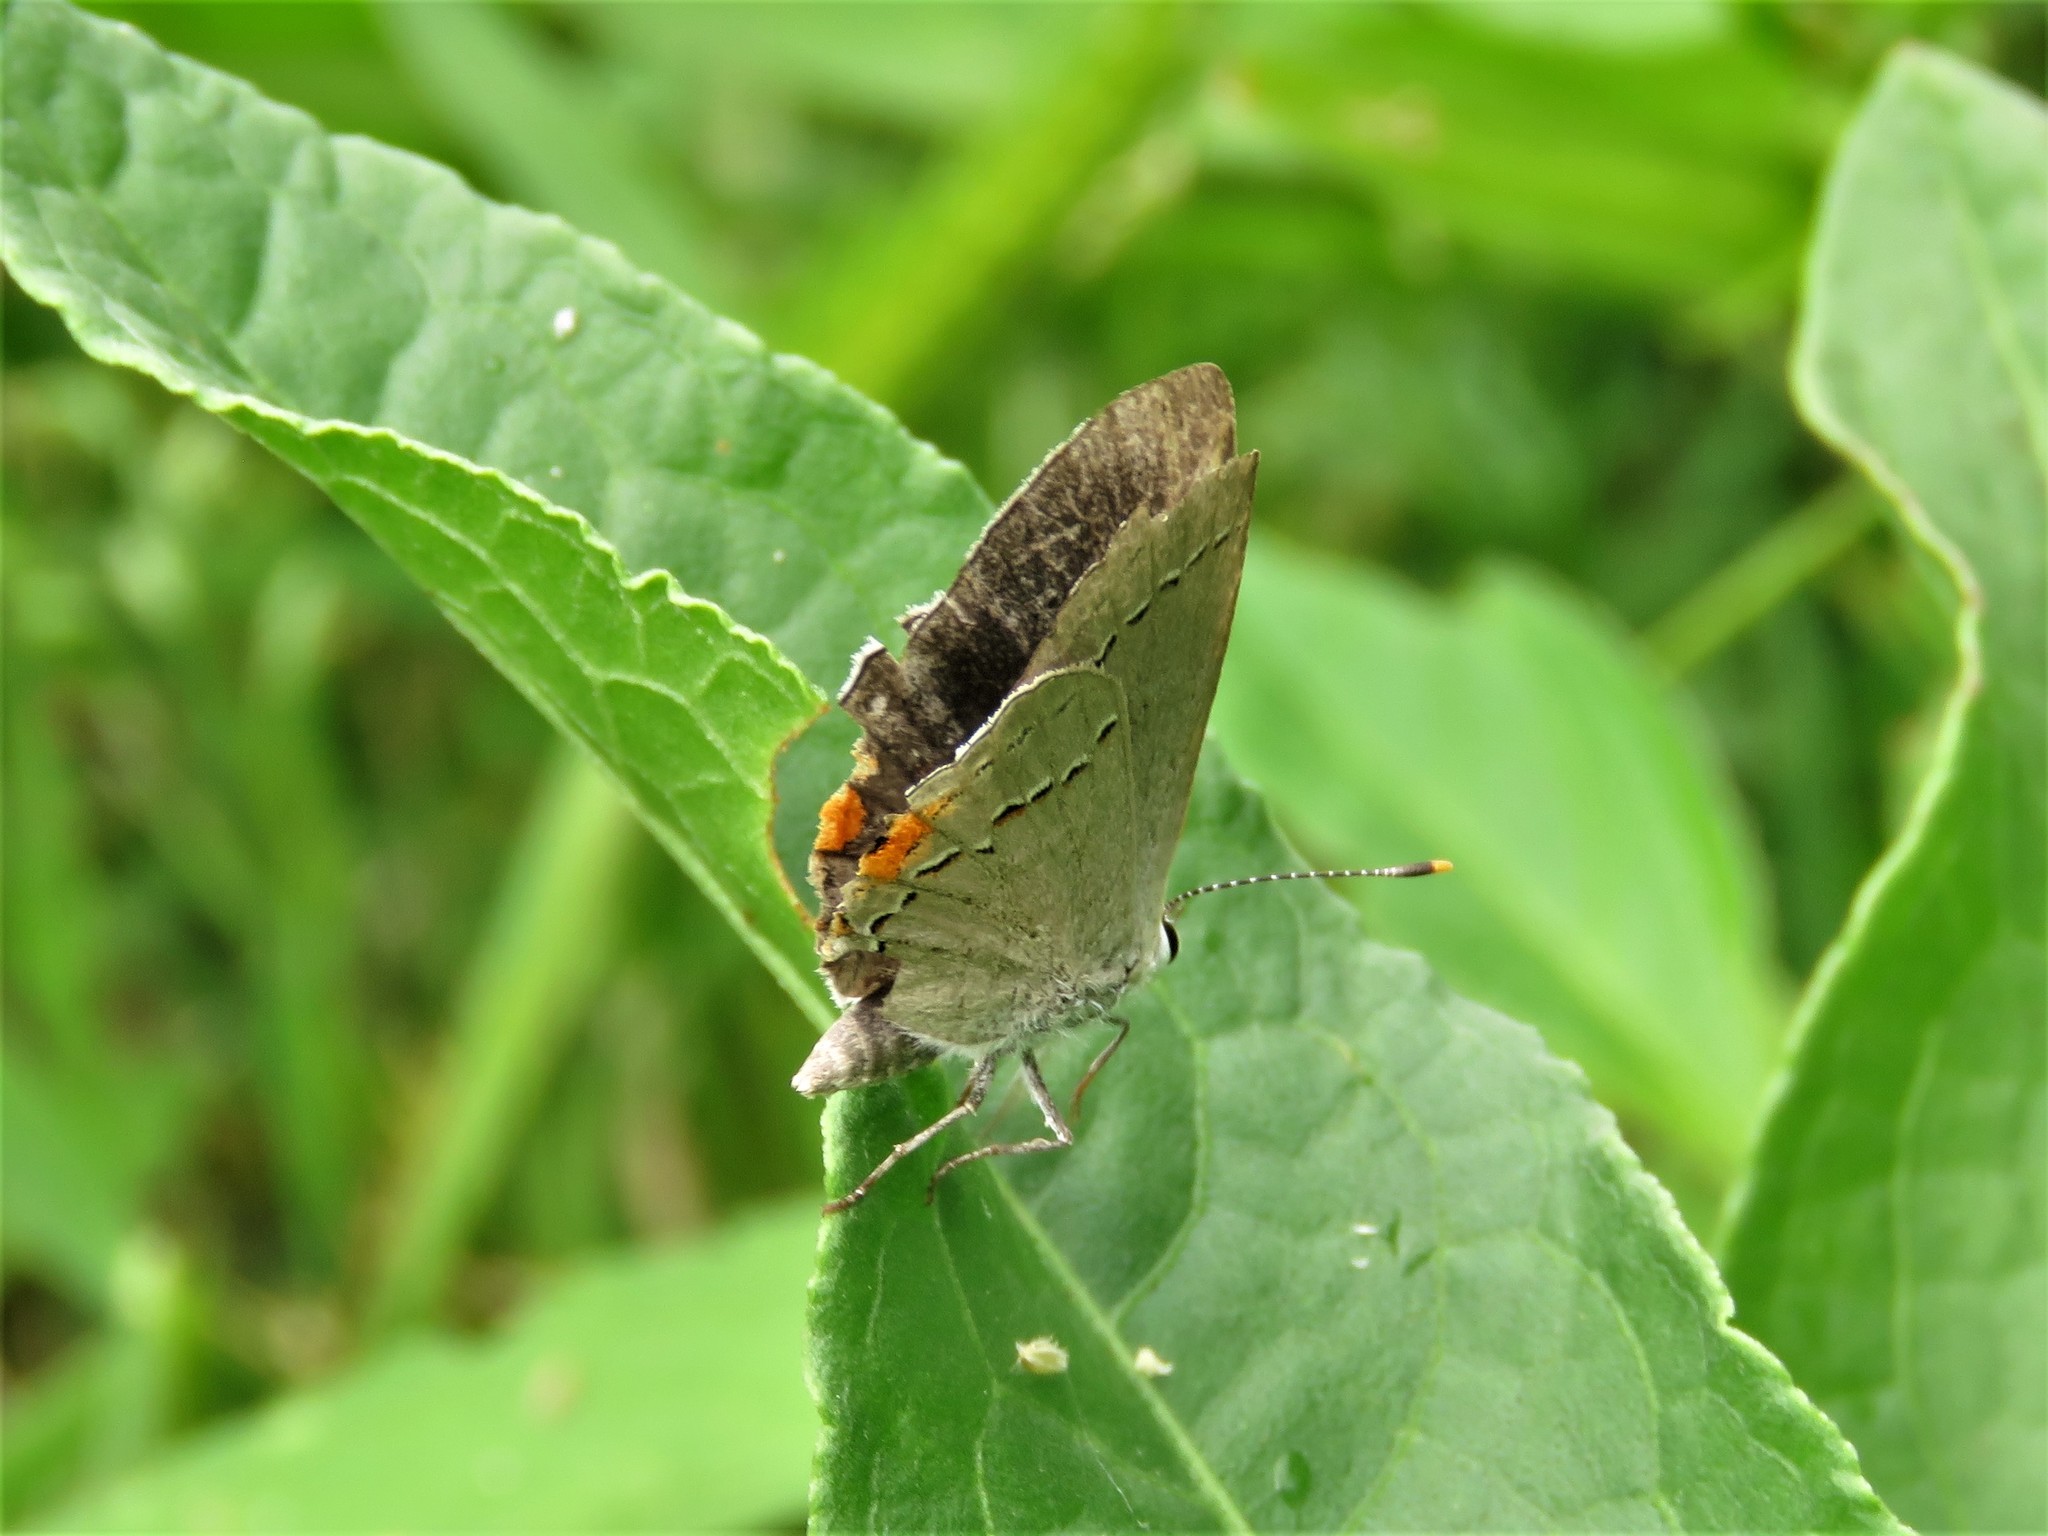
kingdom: Animalia
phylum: Arthropoda
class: Insecta
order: Lepidoptera
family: Lycaenidae
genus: Strymon
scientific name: Strymon melinus
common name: Gray hairstreak
